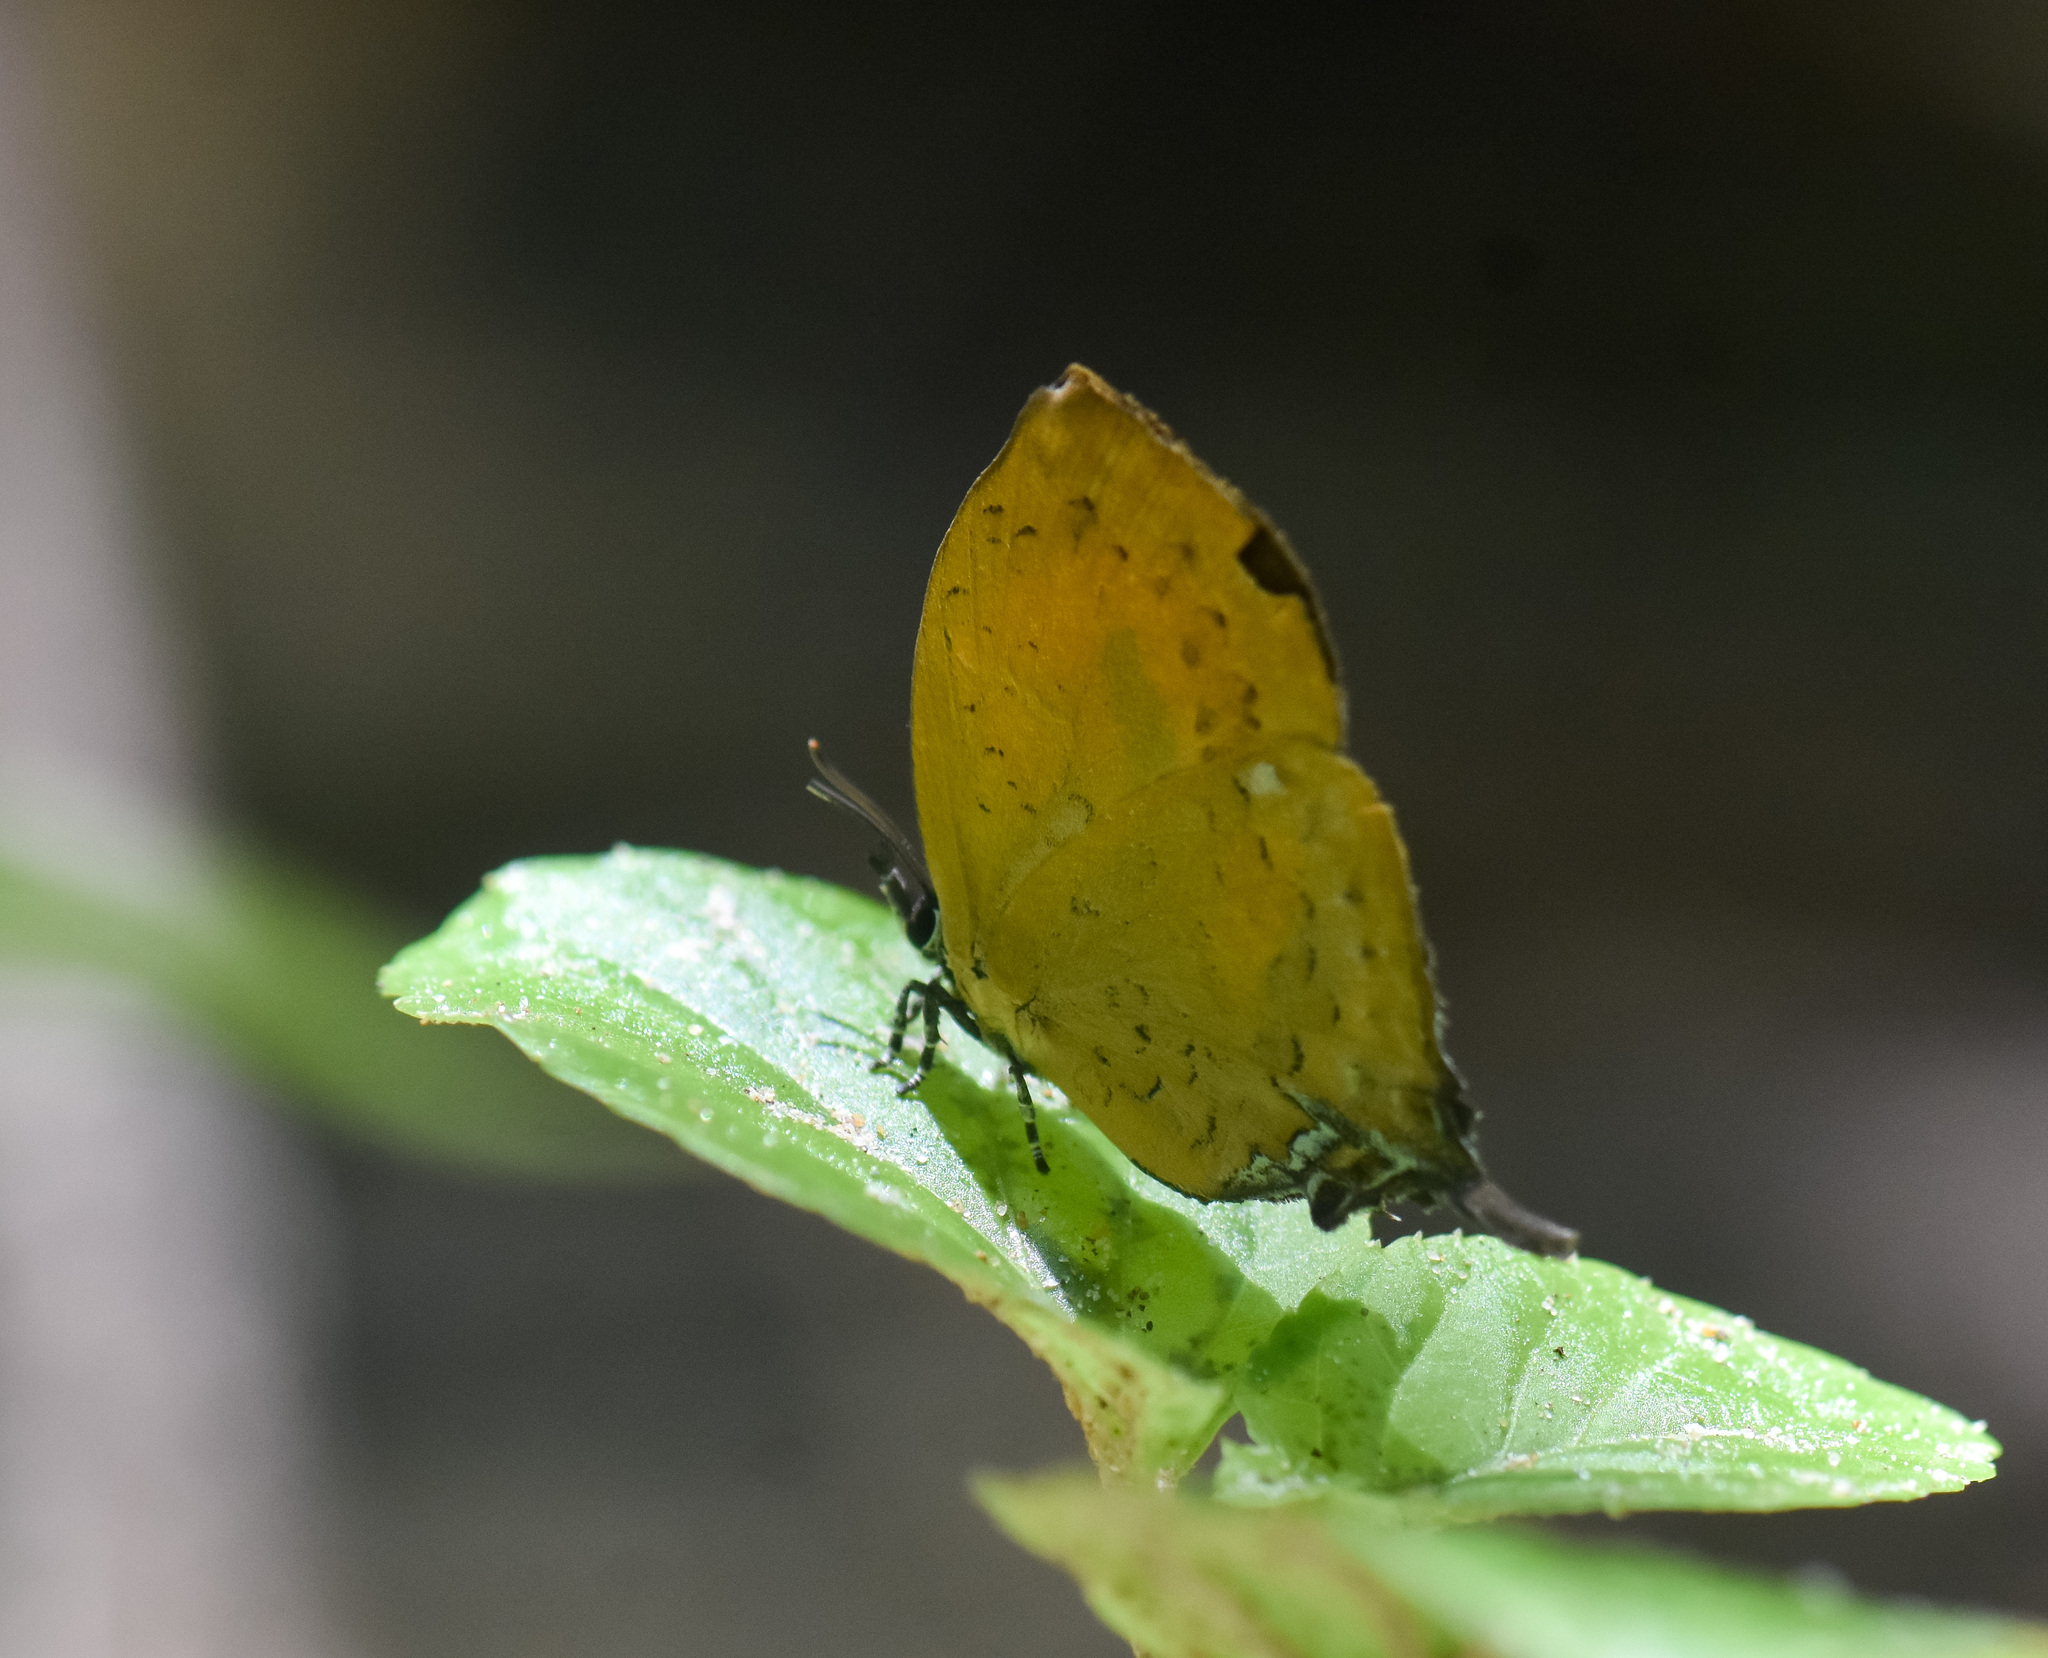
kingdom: Animalia
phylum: Arthropoda
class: Insecta
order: Lepidoptera
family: Lycaenidae
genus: Yasoda
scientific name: Yasoda tripunctata
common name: Branded yamfly
